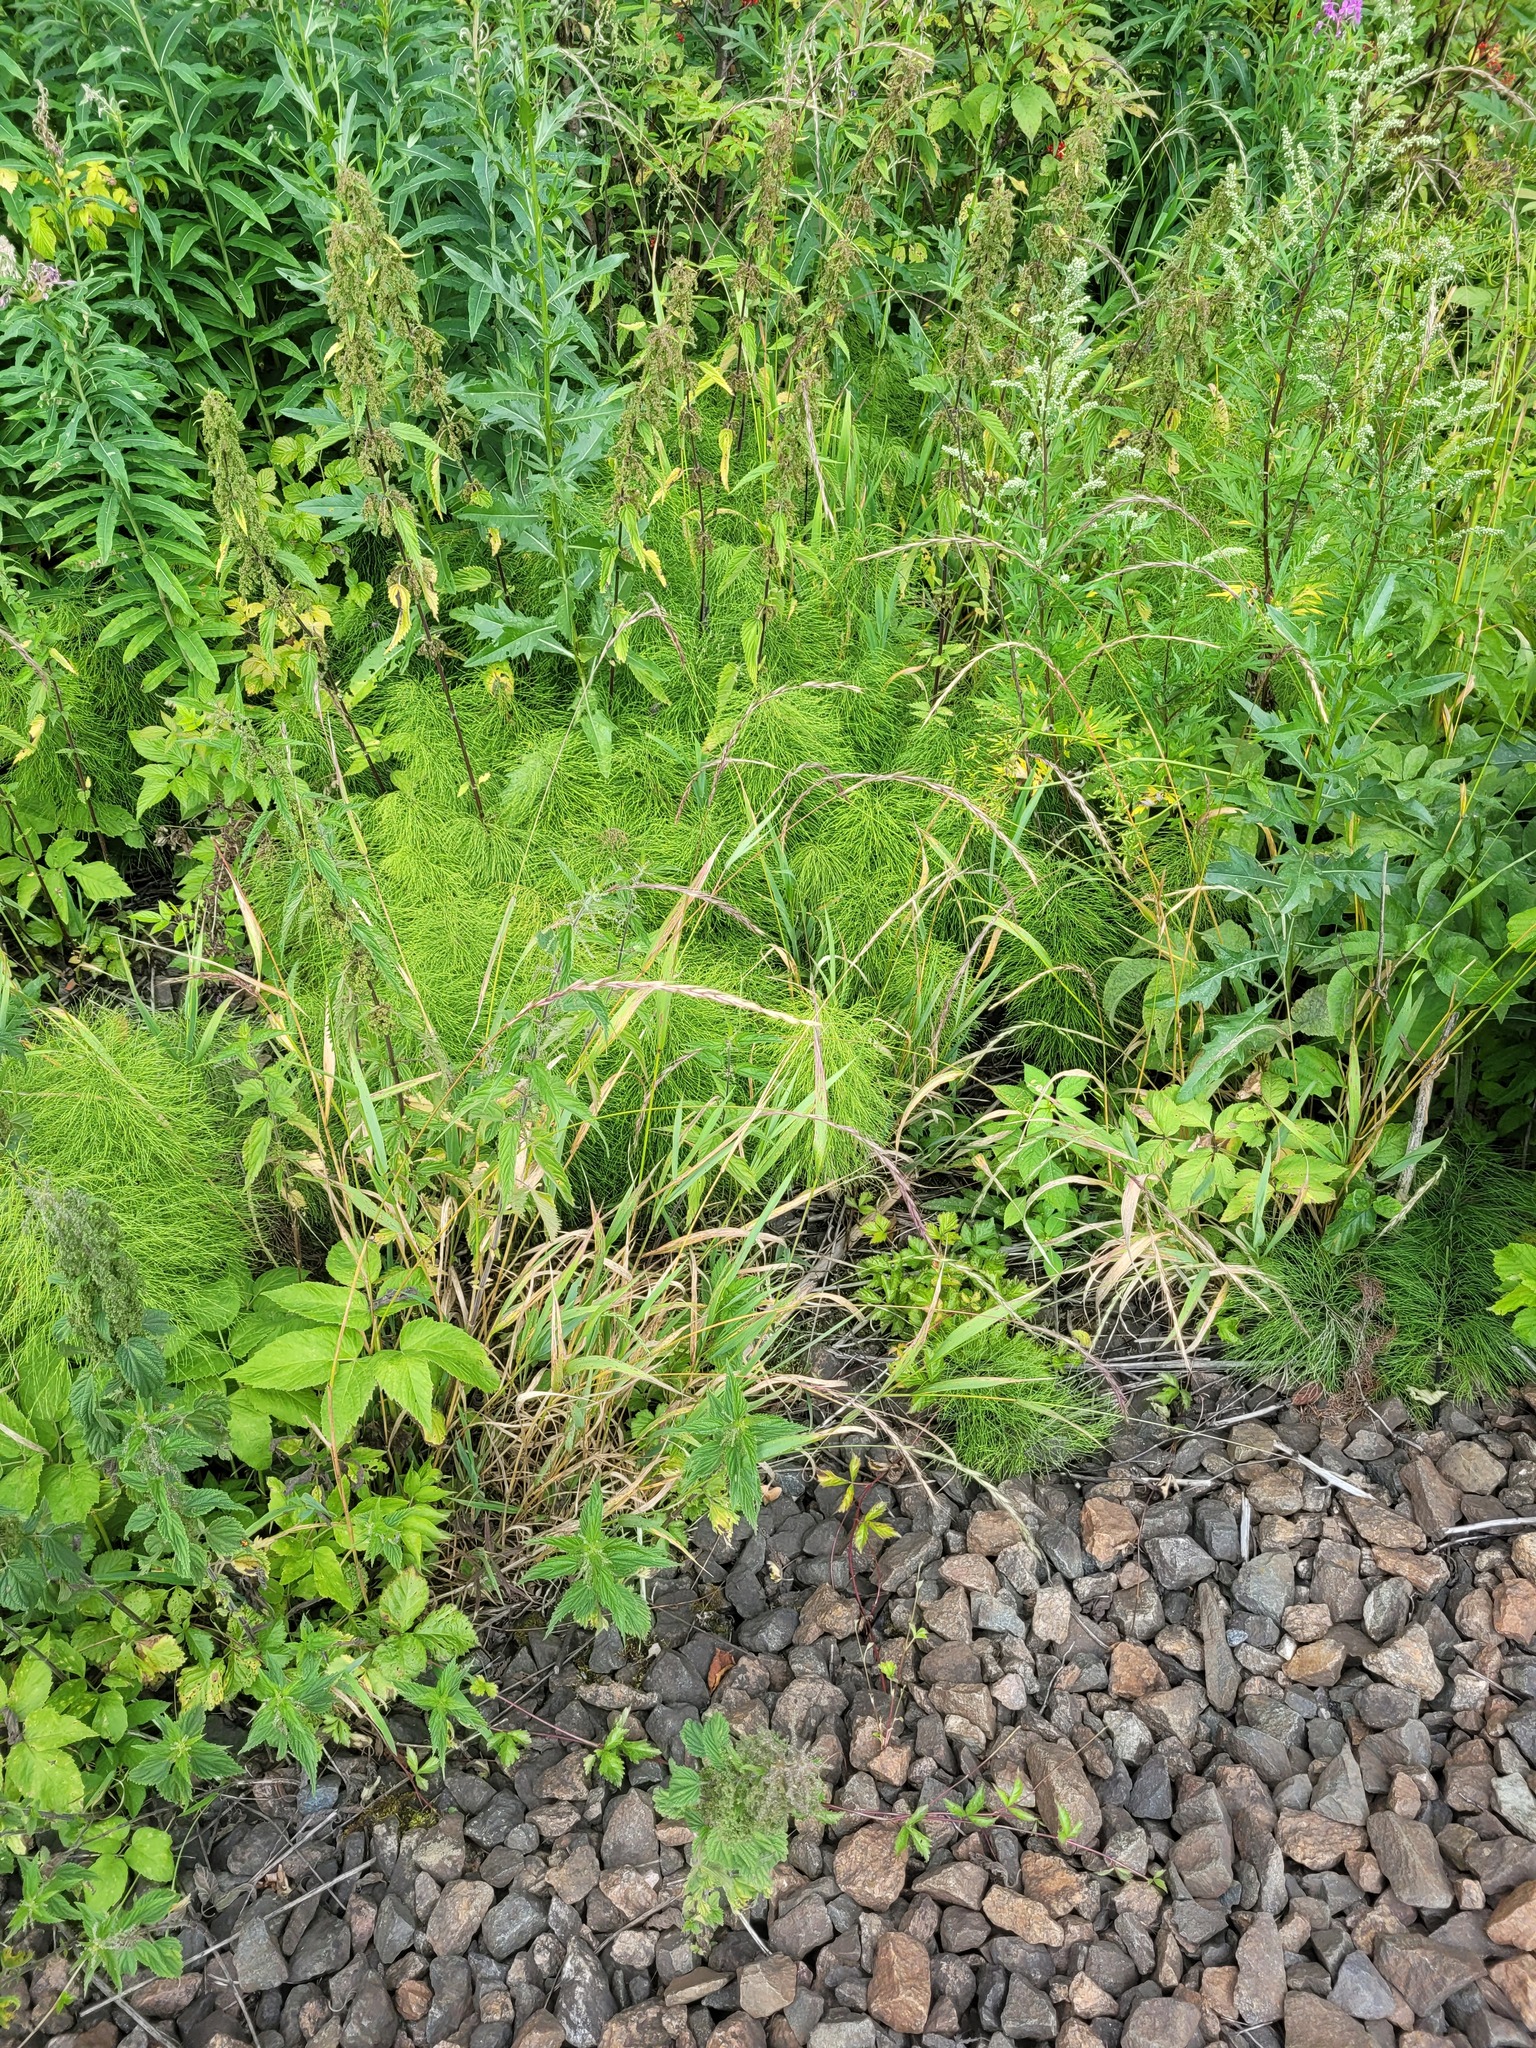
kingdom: Plantae
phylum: Tracheophyta
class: Liliopsida
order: Poales
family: Poaceae
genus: Elymus
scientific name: Elymus caninus
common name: Bearded couch
